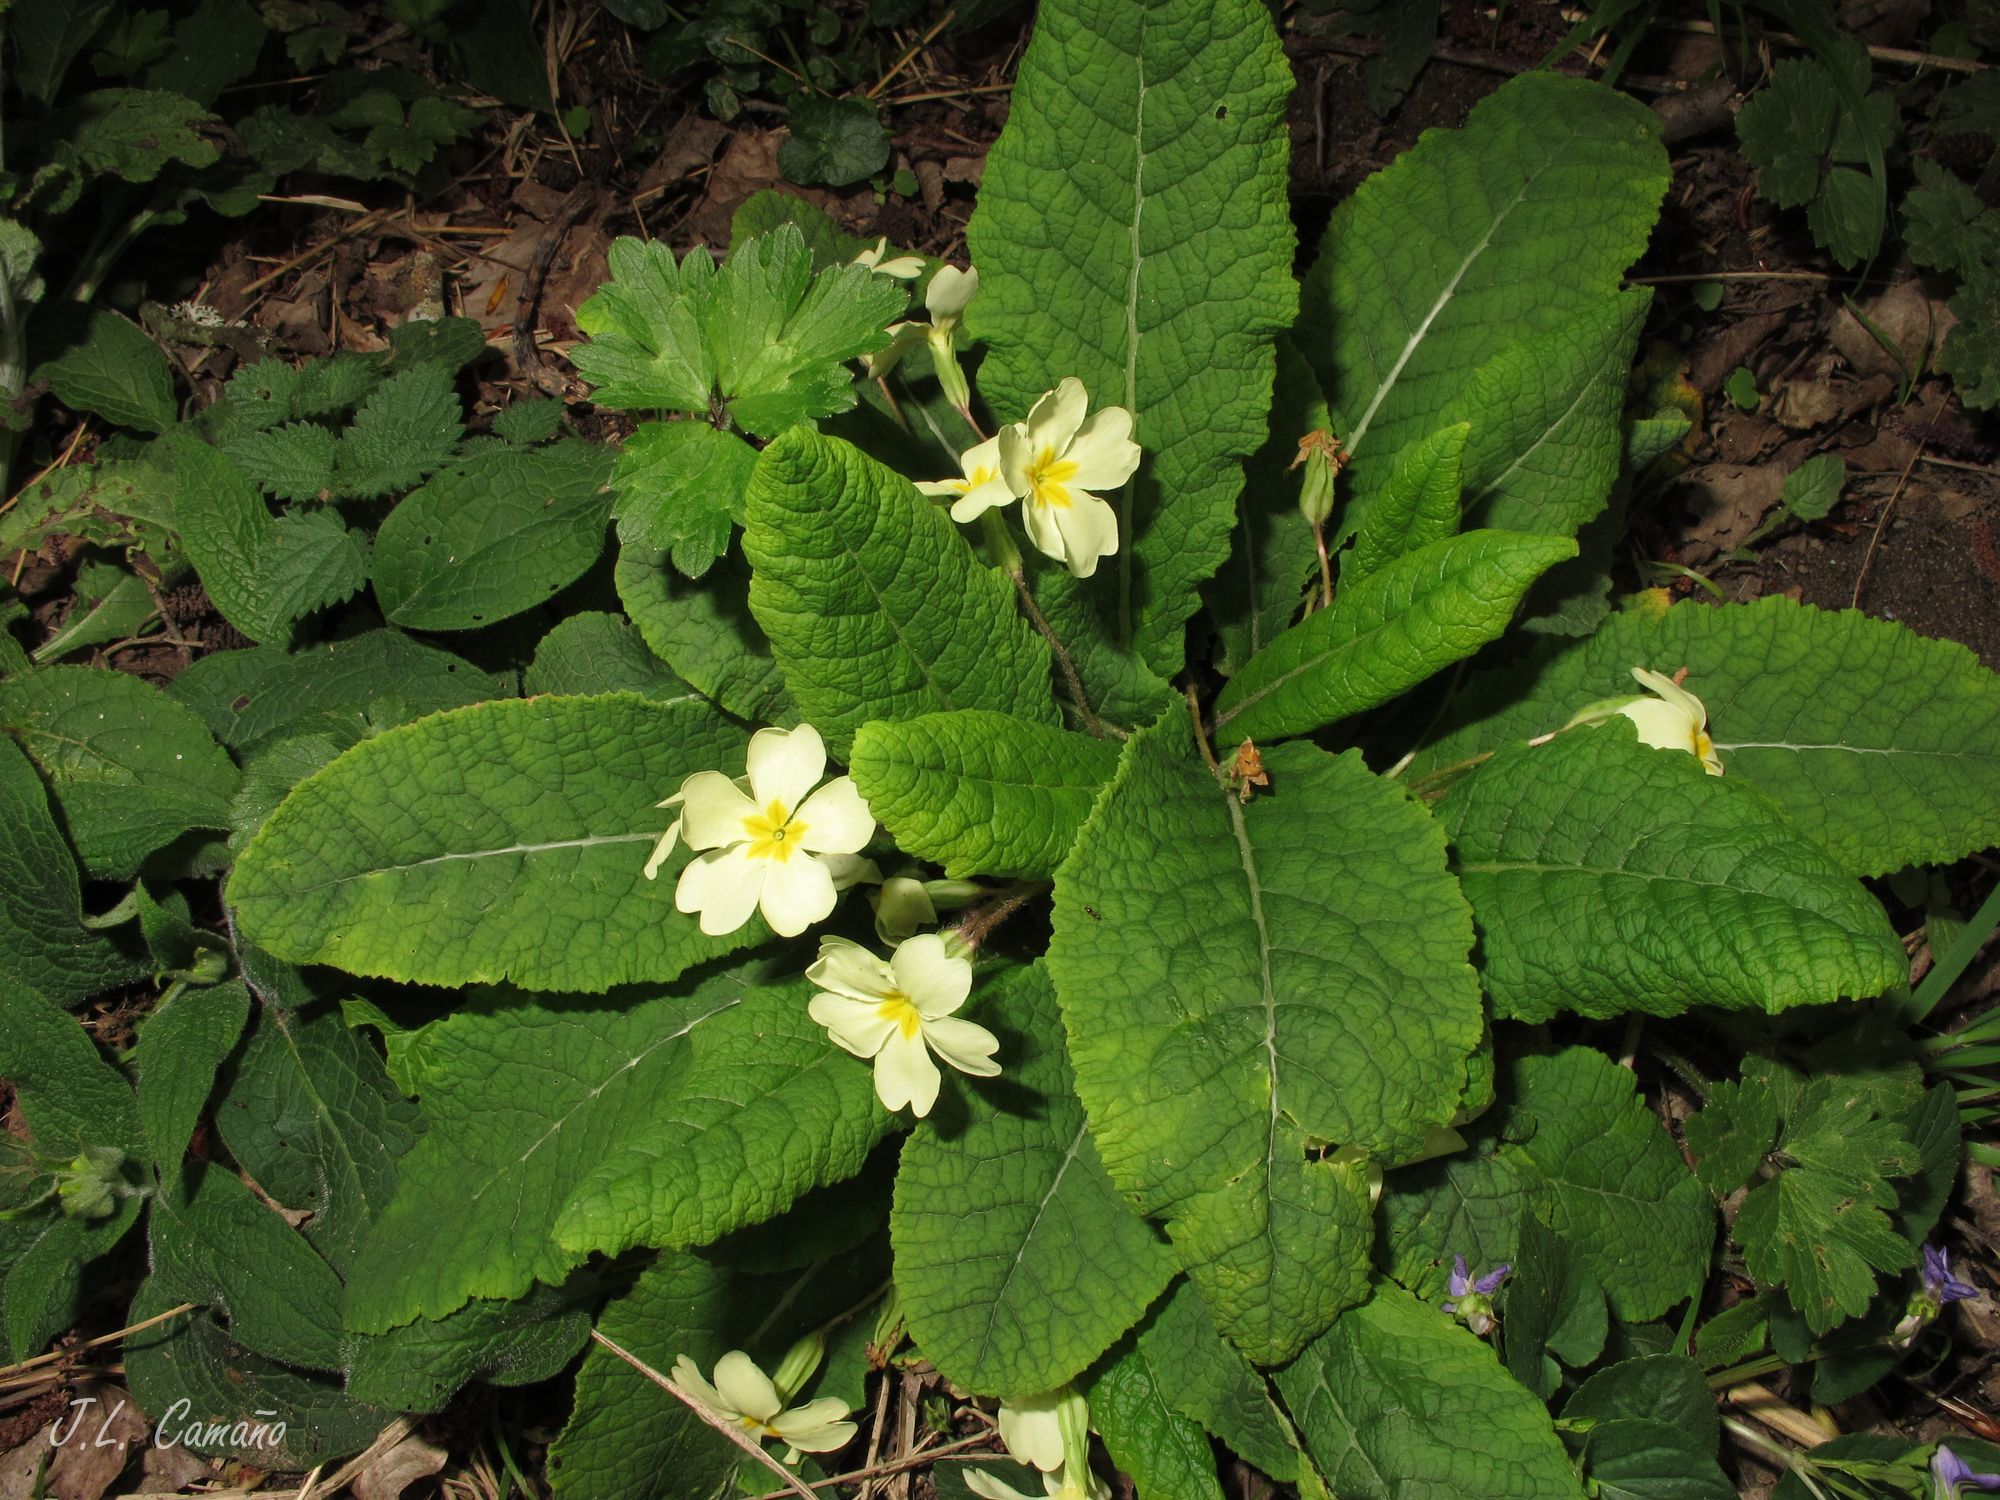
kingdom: Plantae
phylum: Tracheophyta
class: Magnoliopsida
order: Ericales
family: Primulaceae
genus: Primula
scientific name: Primula vulgaris
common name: Primrose
